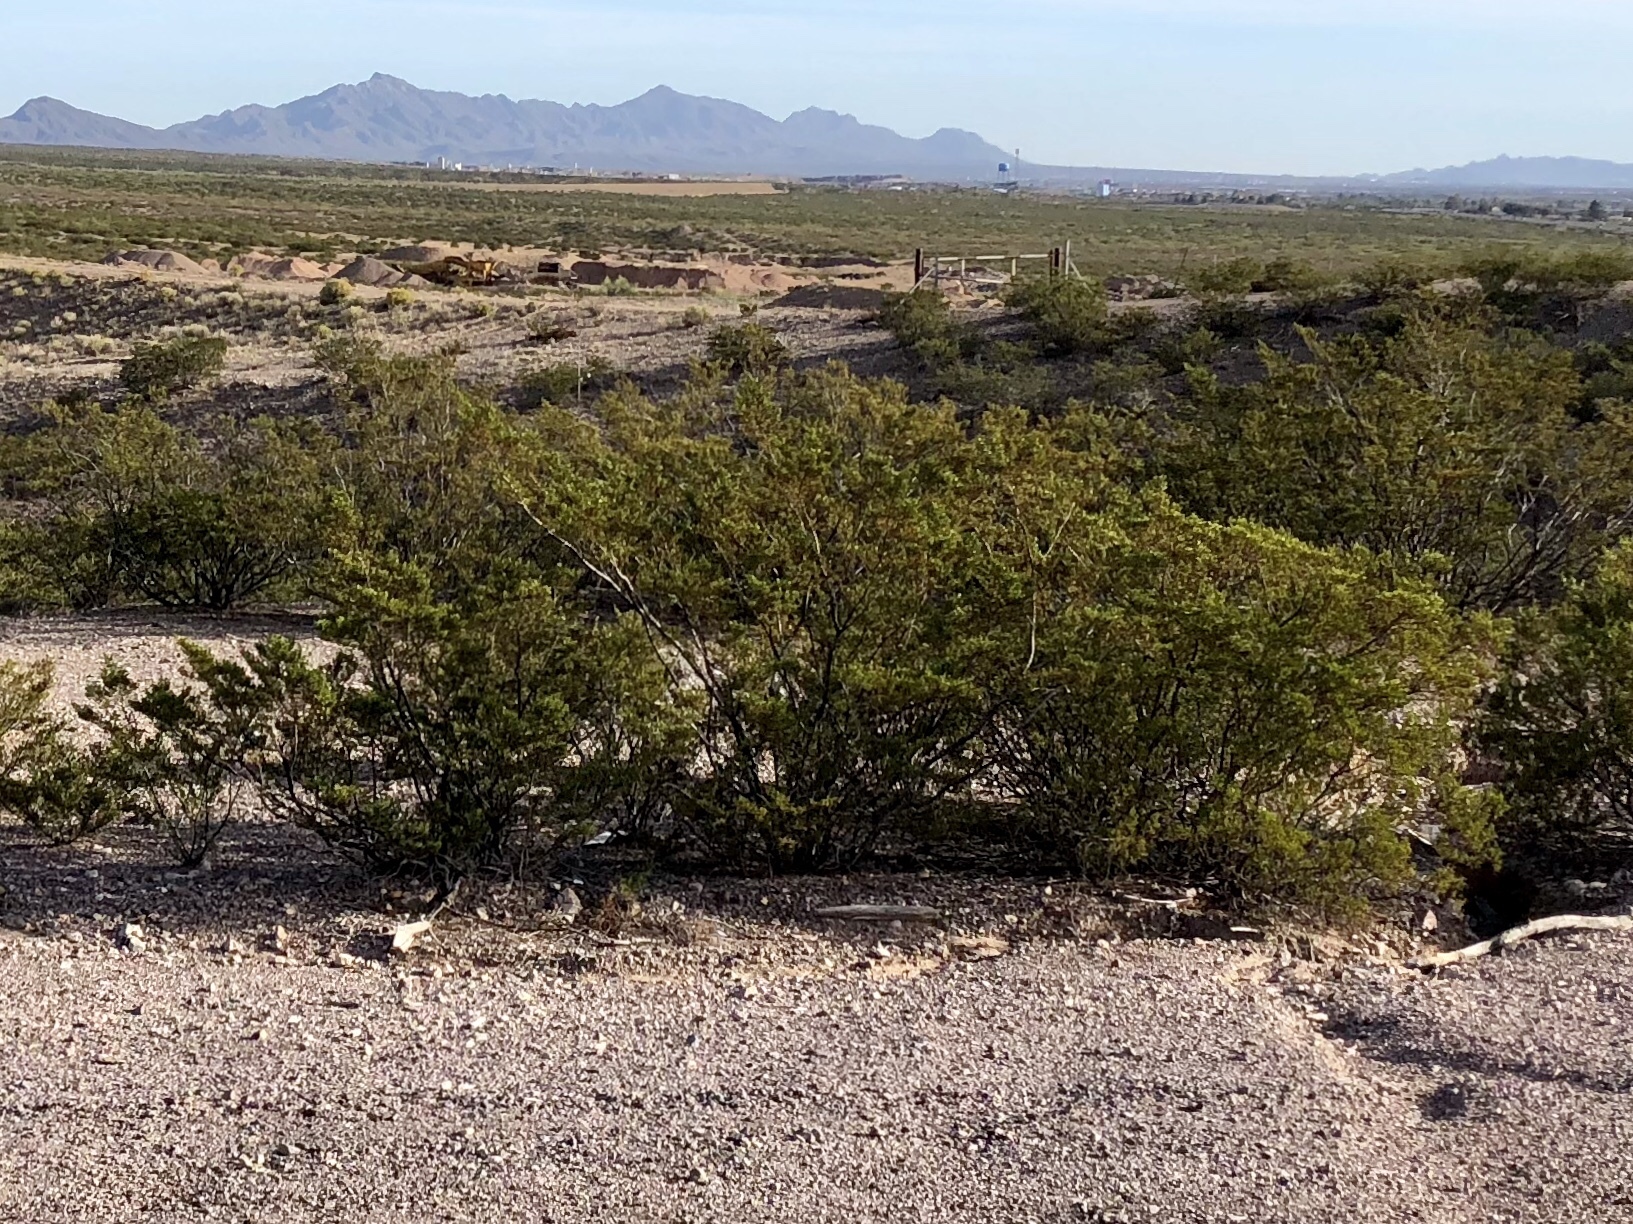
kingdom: Plantae
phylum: Tracheophyta
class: Magnoliopsida
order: Zygophyllales
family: Zygophyllaceae
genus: Larrea
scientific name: Larrea tridentata
